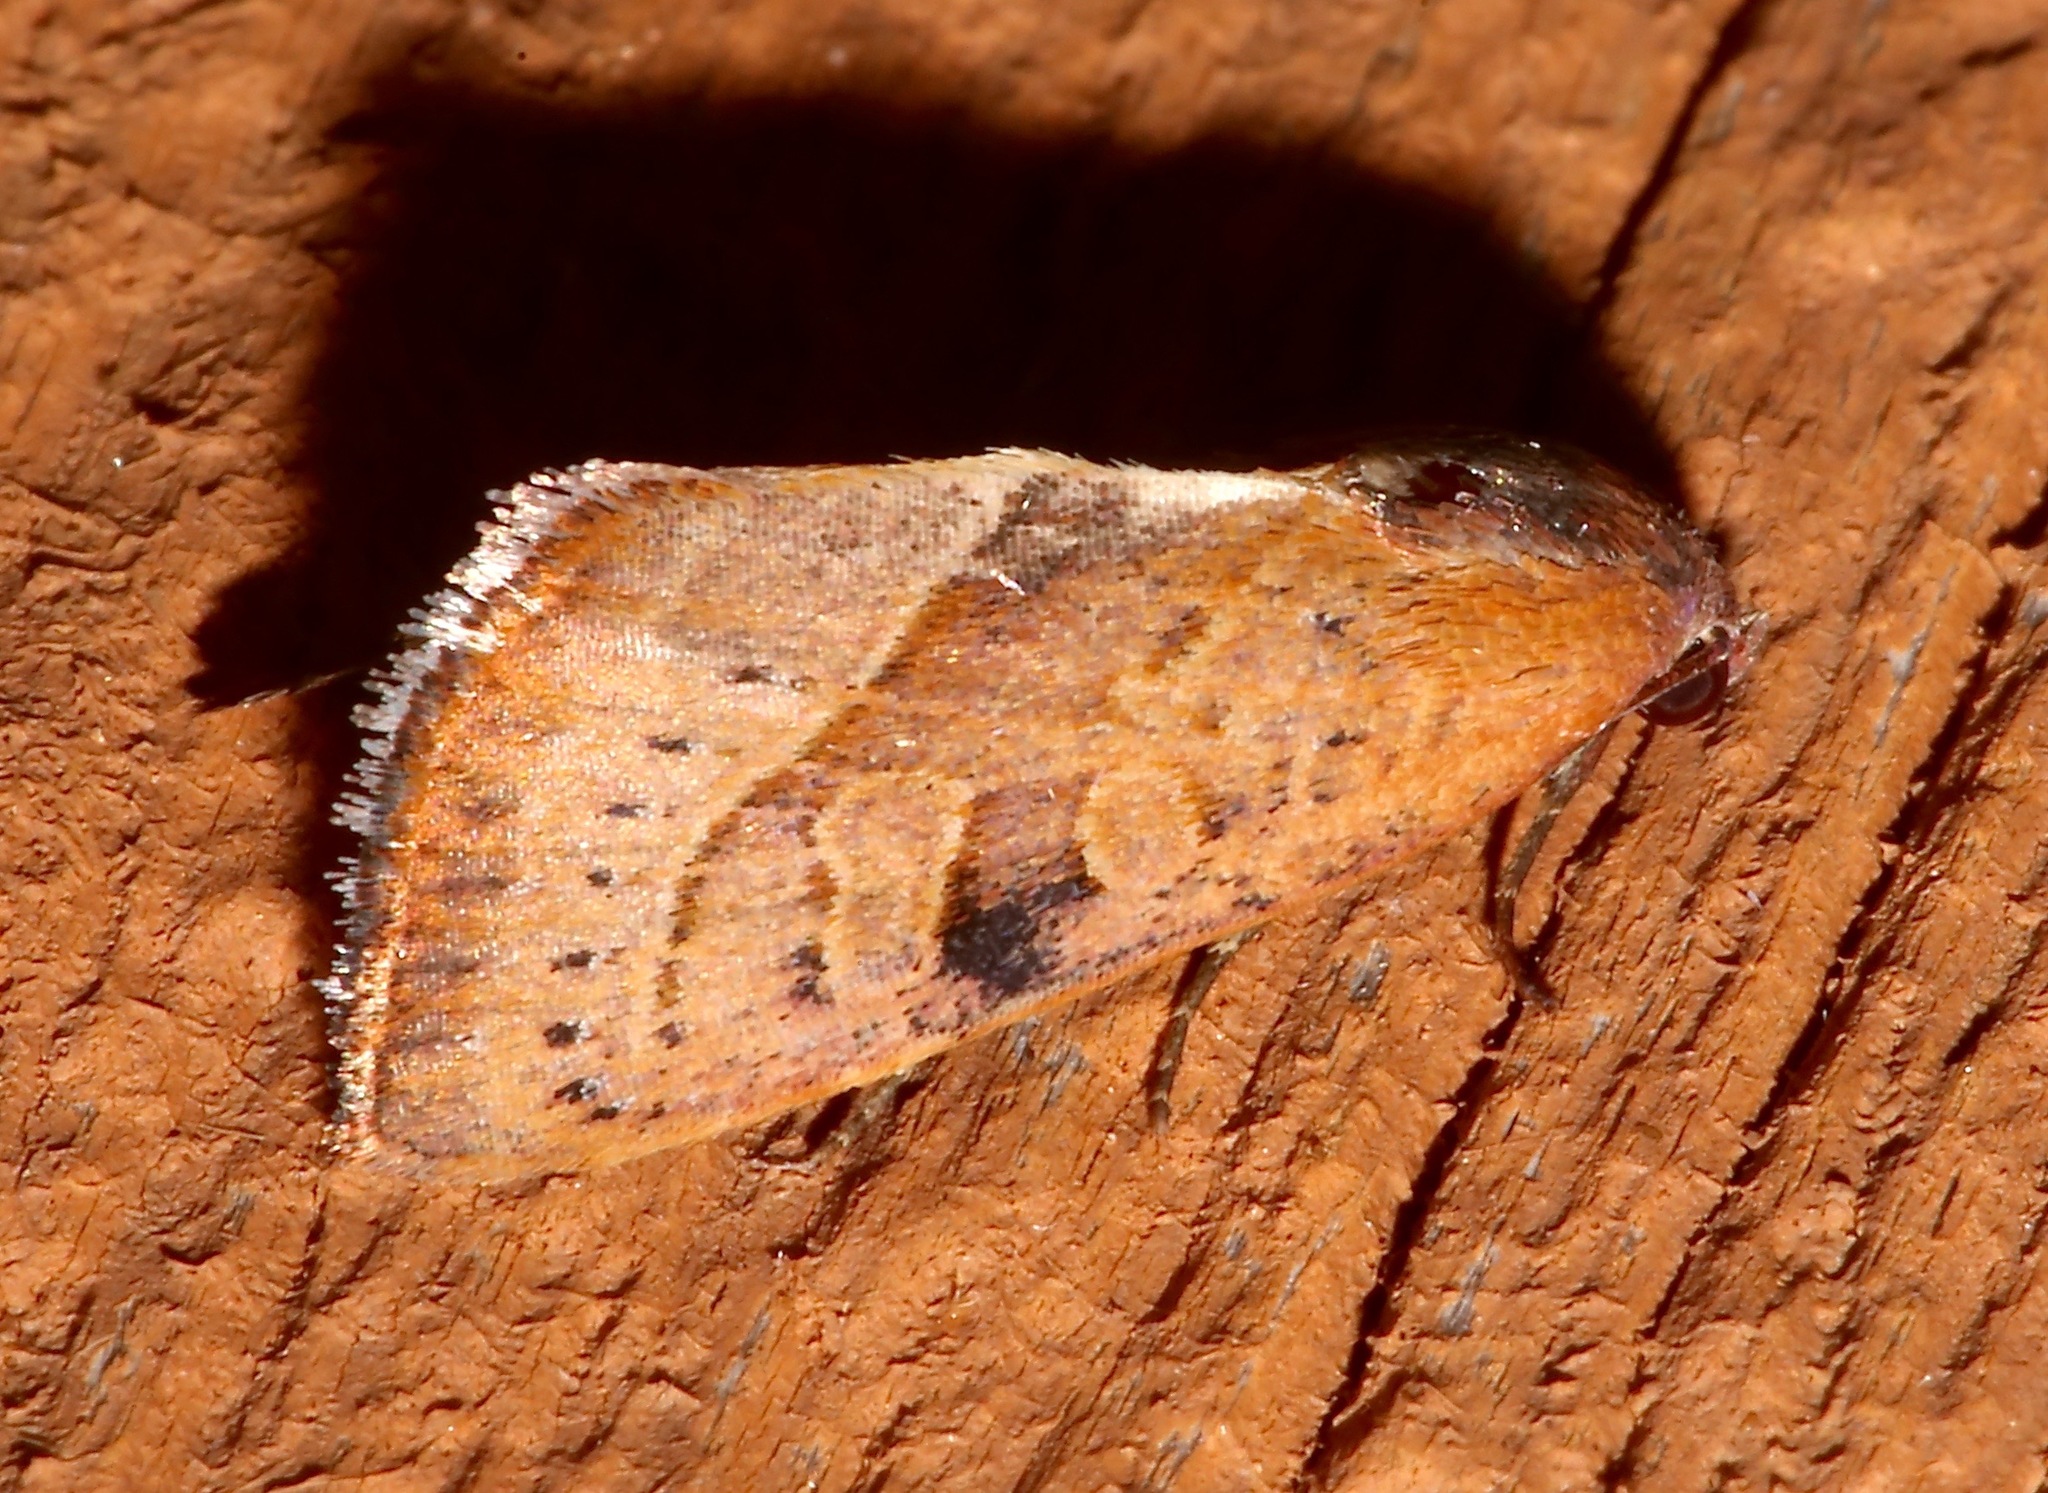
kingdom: Animalia
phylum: Arthropoda
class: Insecta
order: Lepidoptera
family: Noctuidae
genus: Galgula
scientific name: Galgula partita
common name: Wedgeling
